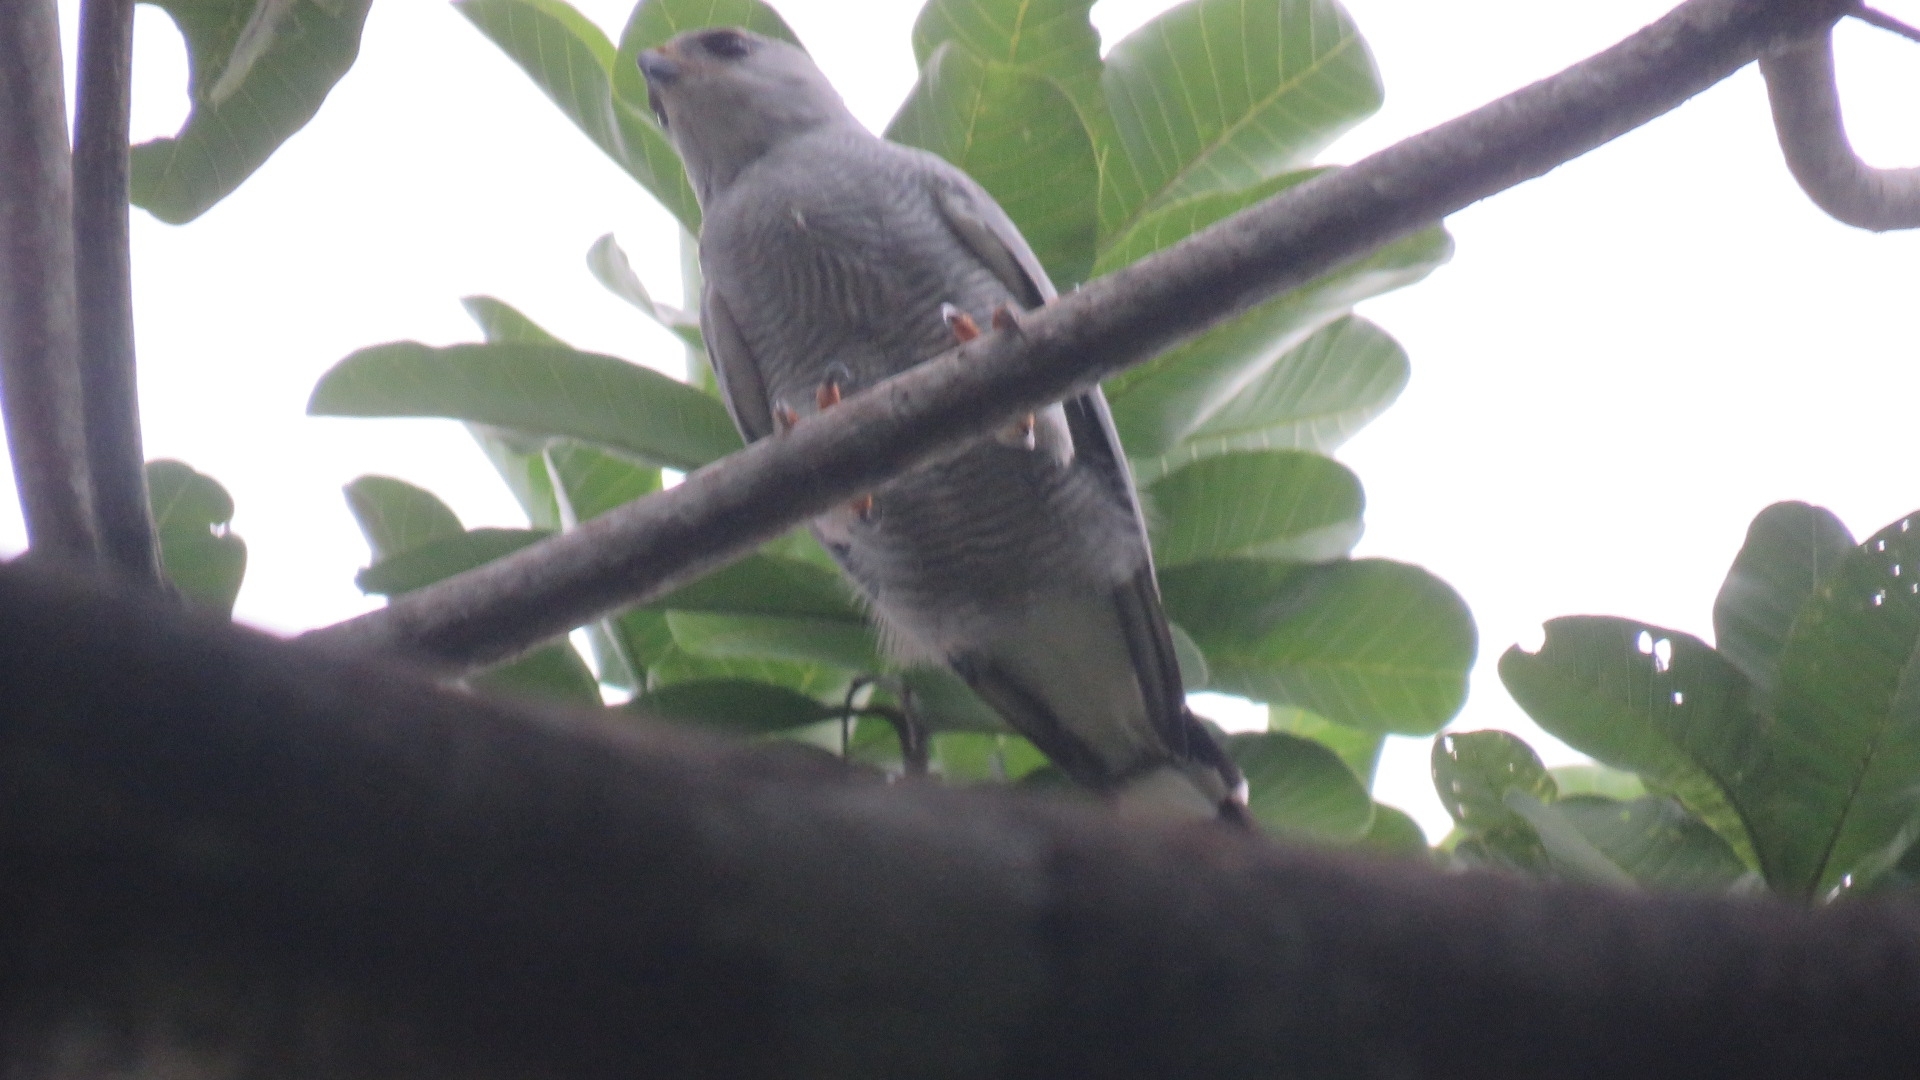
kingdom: Animalia
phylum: Chordata
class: Aves
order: Accipitriformes
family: Accipitridae
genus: Buteo
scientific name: Buteo nitidus
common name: Grey-lined hawk
